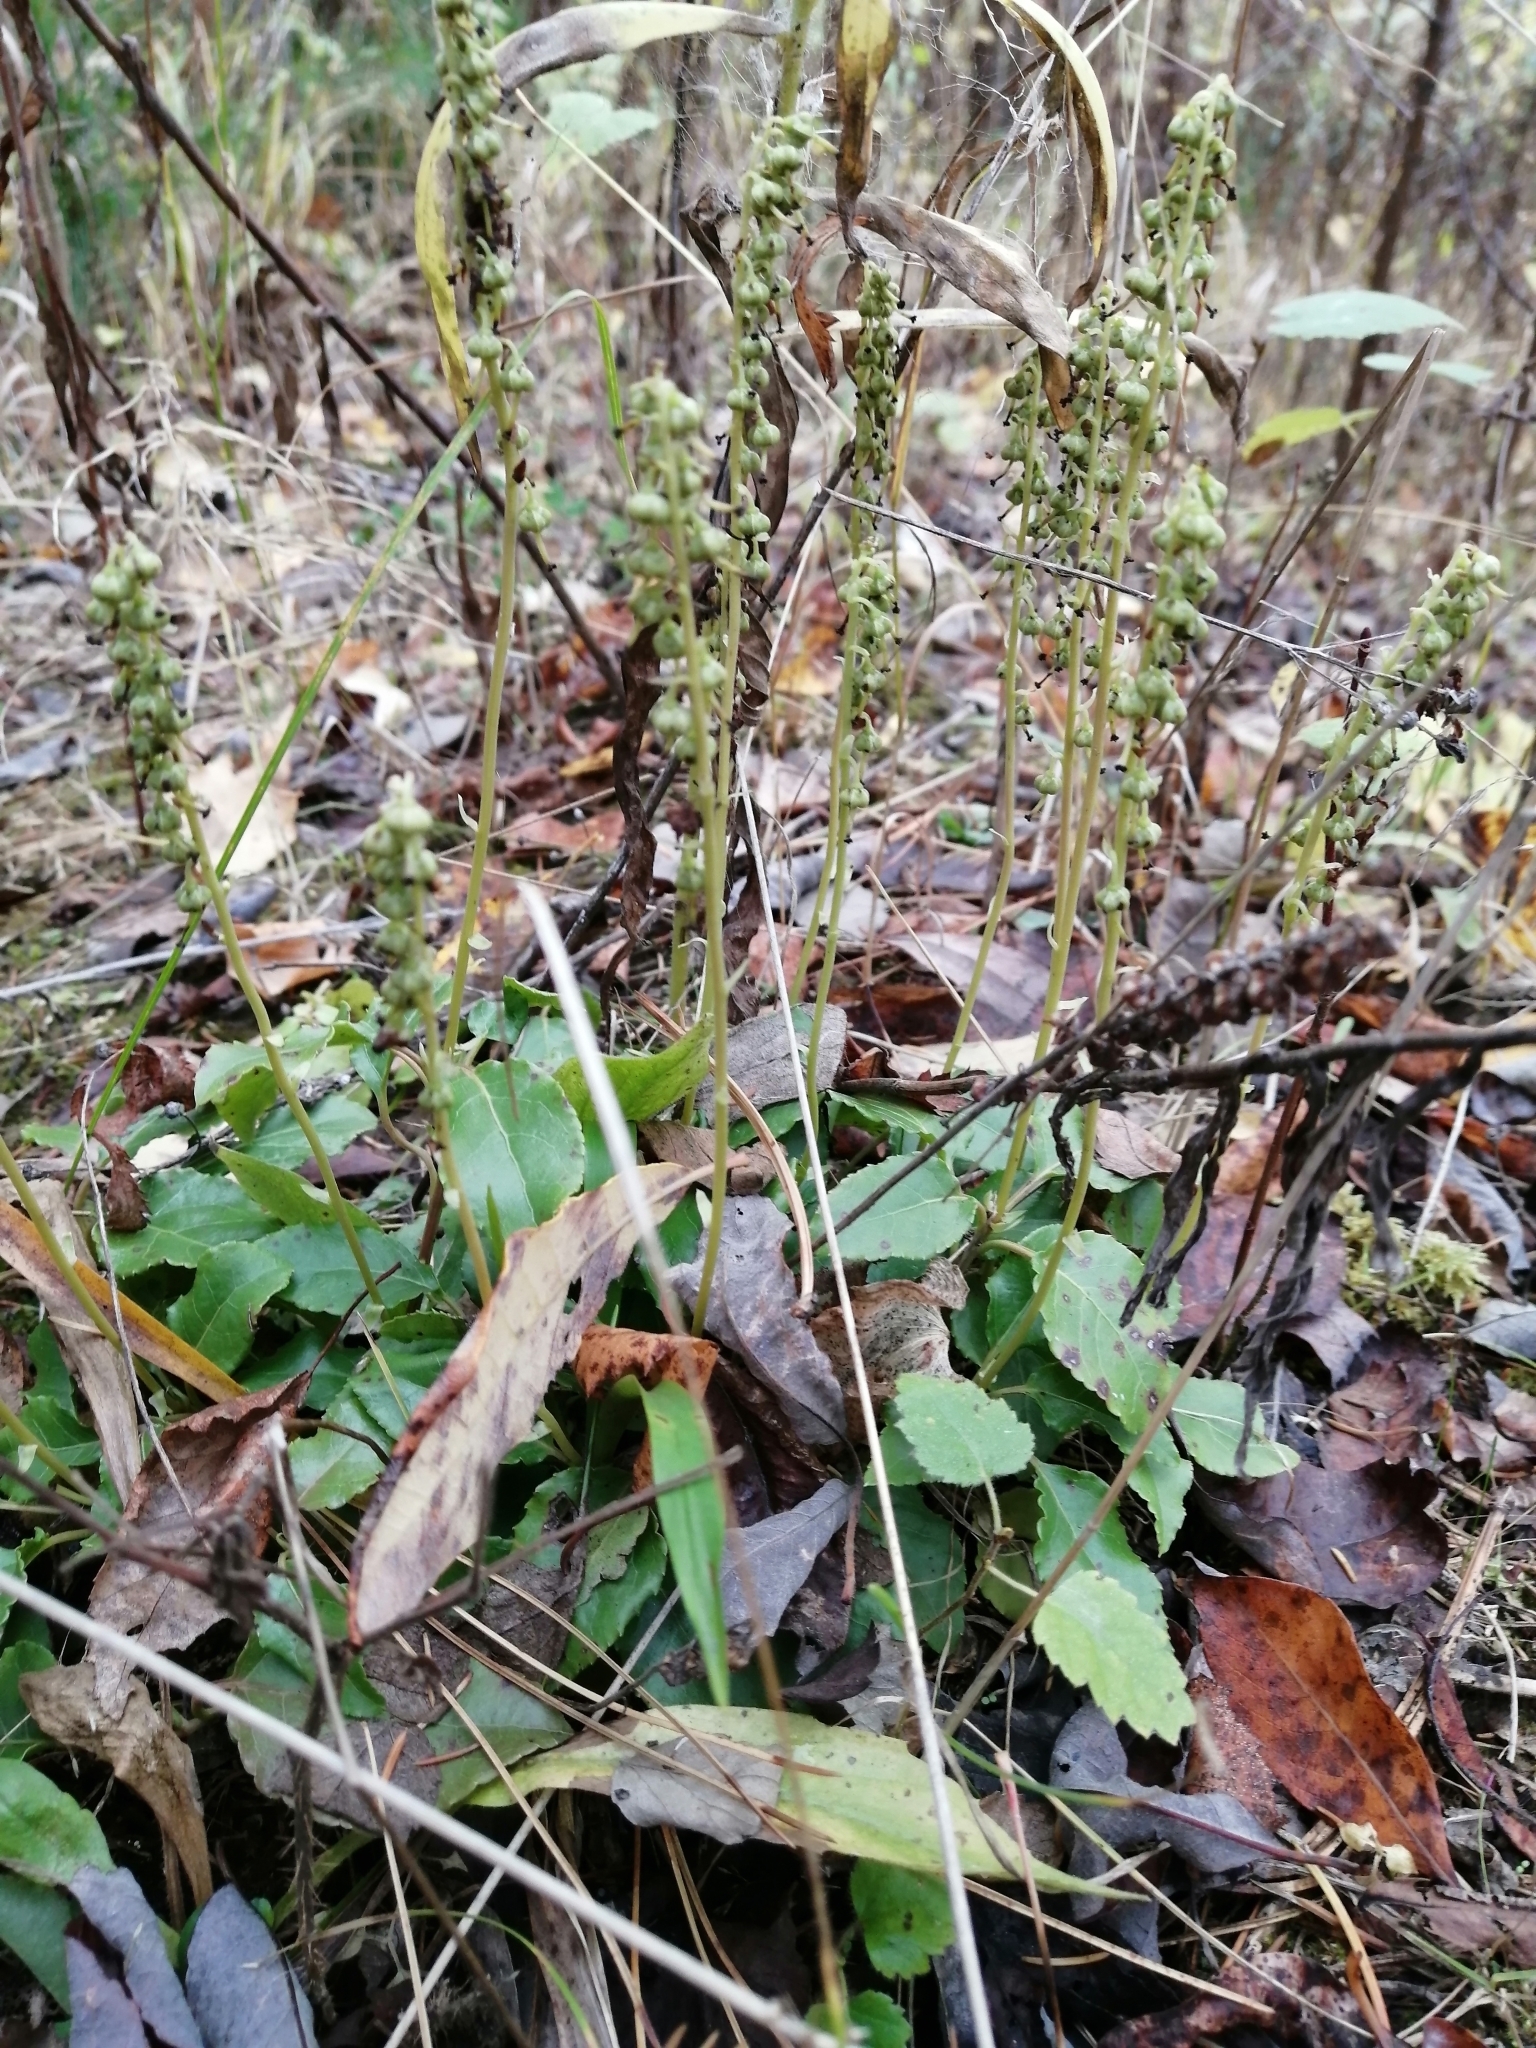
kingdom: Plantae
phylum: Tracheophyta
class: Magnoliopsida
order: Ericales
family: Ericaceae
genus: Orthilia
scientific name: Orthilia secunda
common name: One-sided orthilia
